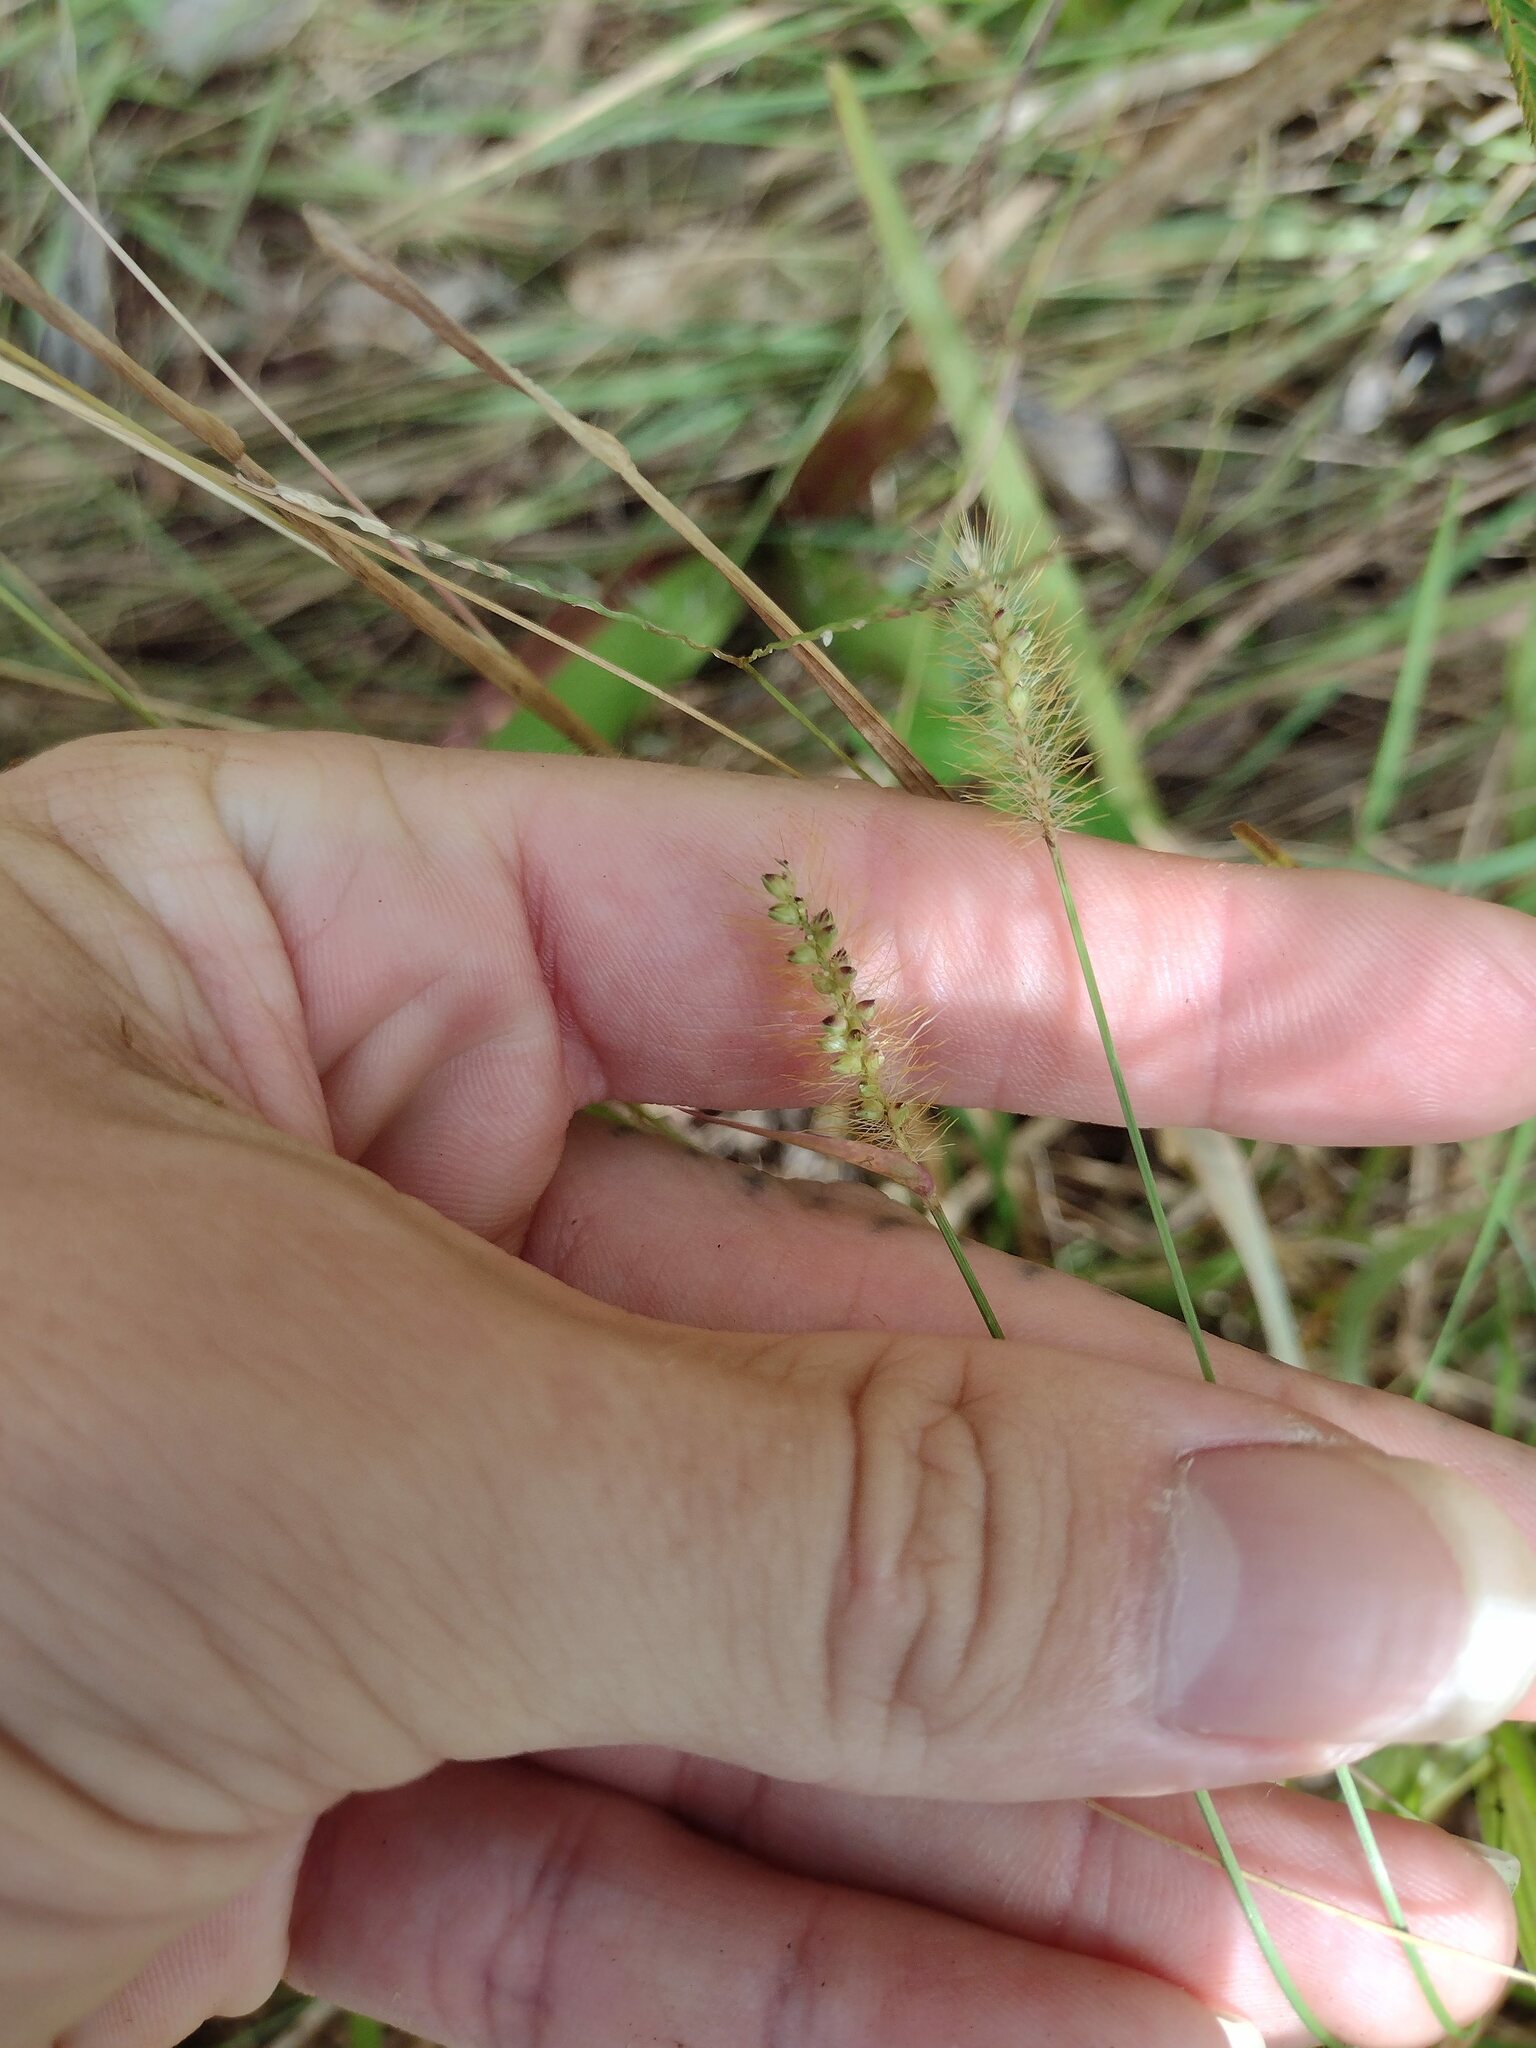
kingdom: Plantae
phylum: Tracheophyta
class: Liliopsida
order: Poales
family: Poaceae
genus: Setaria
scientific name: Setaria parviflora
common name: Knotroot bristle-grass
